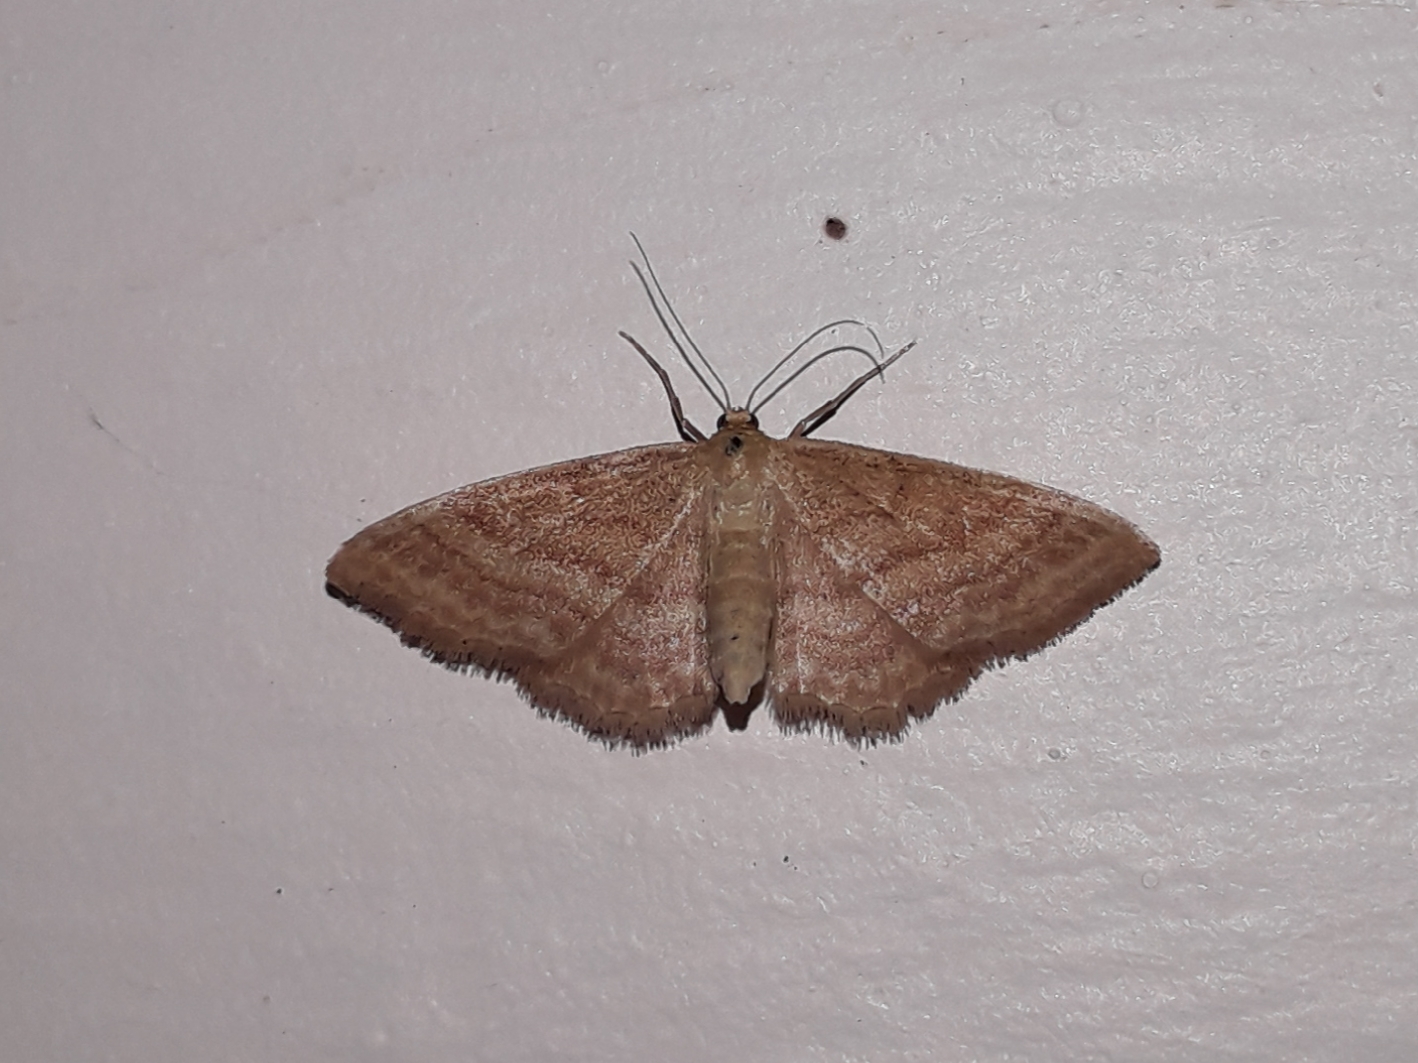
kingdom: Animalia
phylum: Arthropoda
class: Insecta
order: Lepidoptera
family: Geometridae
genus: Idaea
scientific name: Idaea ochrata
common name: Bright wave
